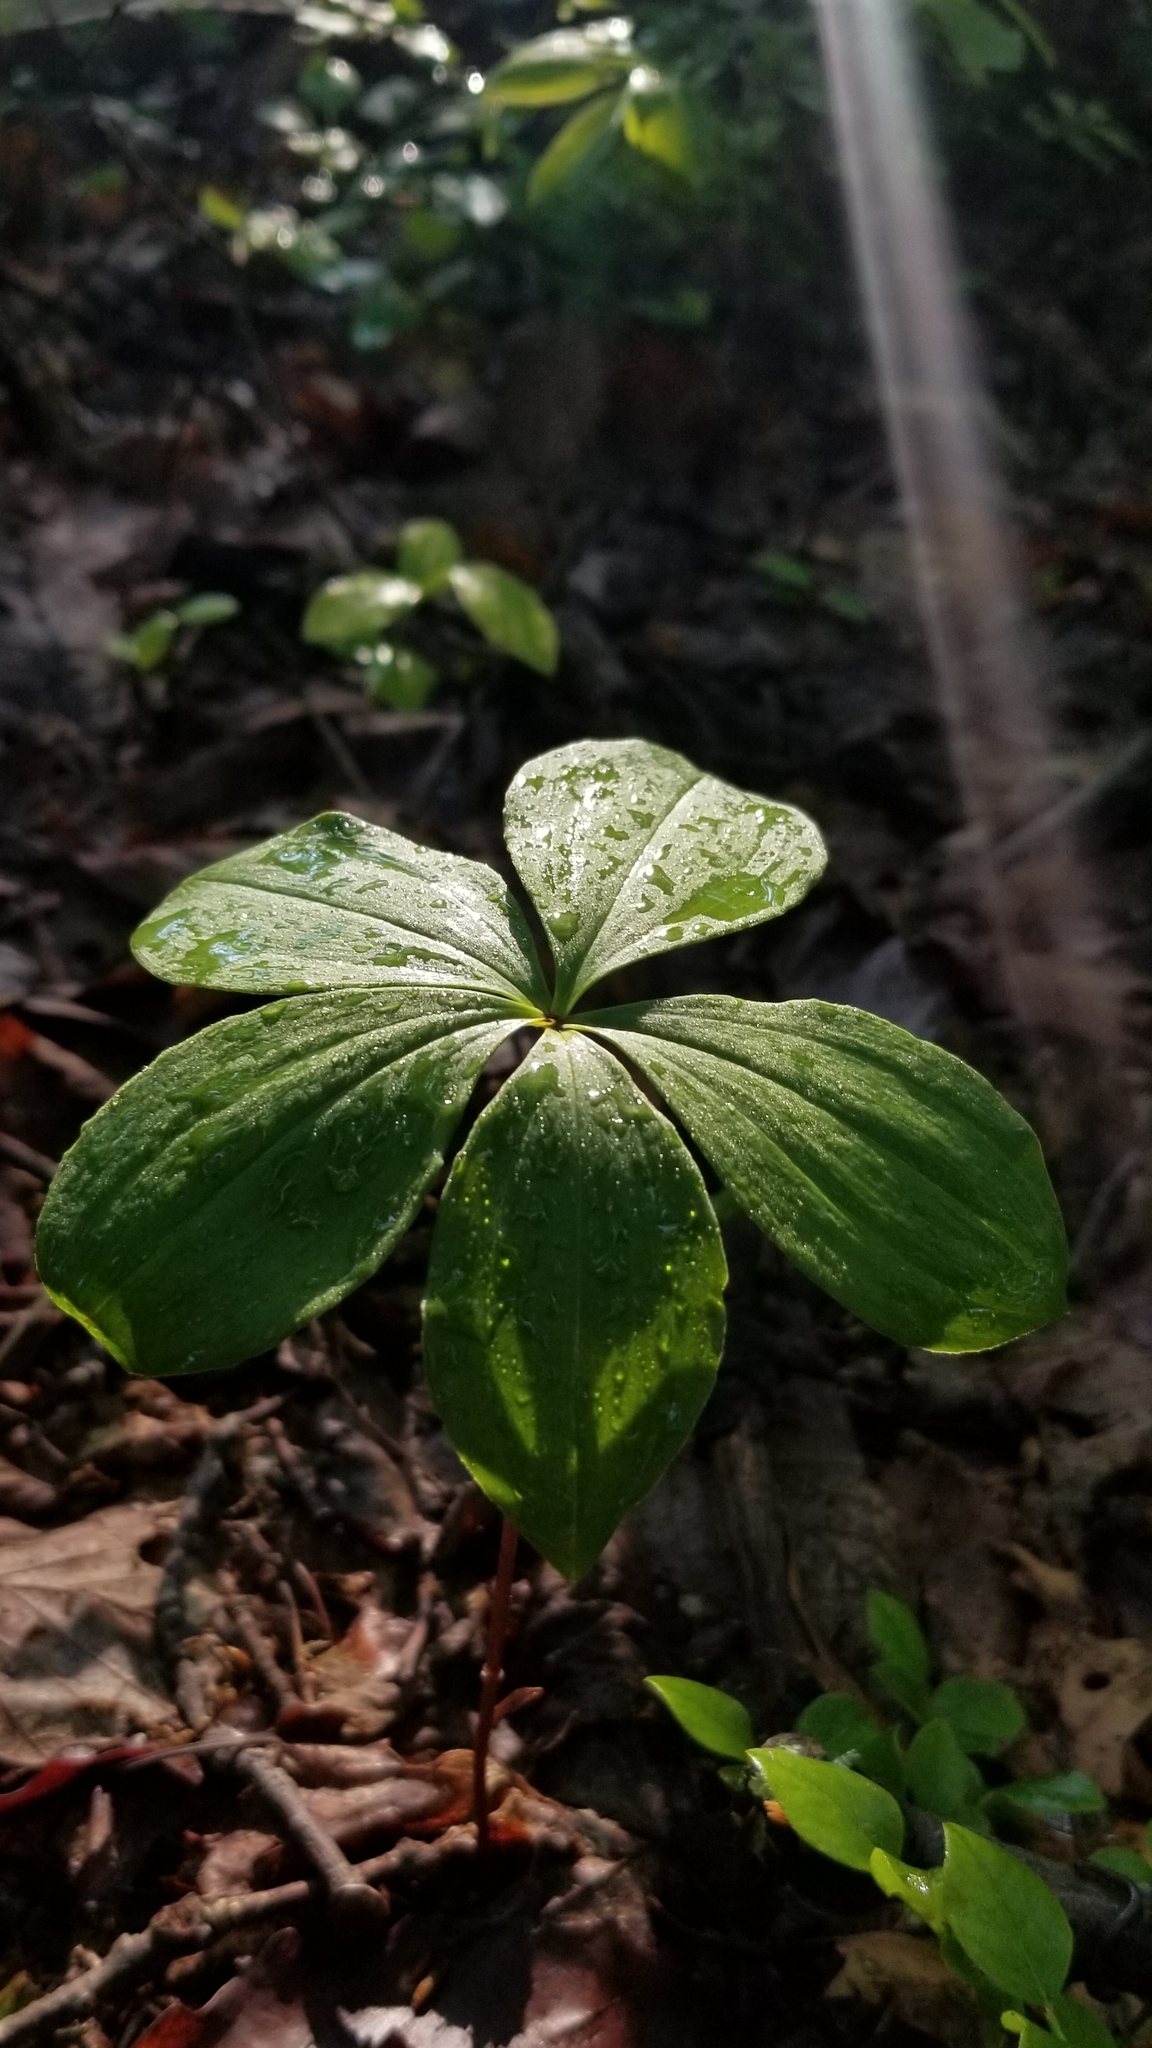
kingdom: Plantae
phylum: Tracheophyta
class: Liliopsida
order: Asparagales
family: Orchidaceae
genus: Isotria
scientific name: Isotria verticillata
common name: Large whorled pogonia
